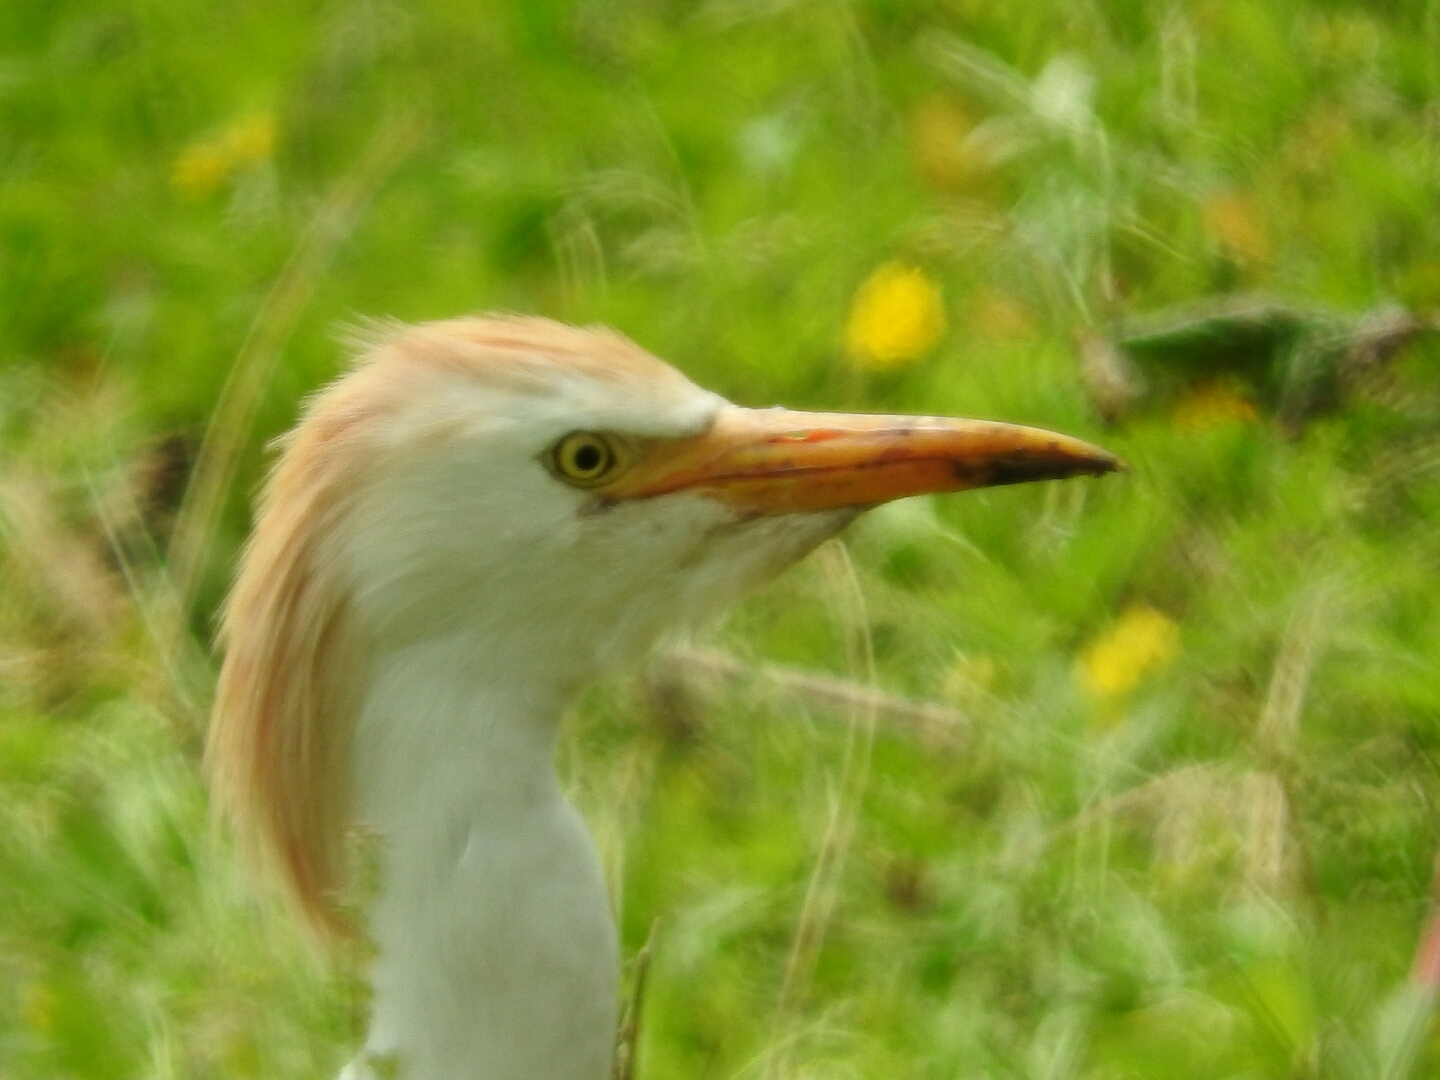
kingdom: Animalia
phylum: Chordata
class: Aves
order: Pelecaniformes
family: Ardeidae
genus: Bubulcus
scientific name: Bubulcus ibis
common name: Cattle egret
